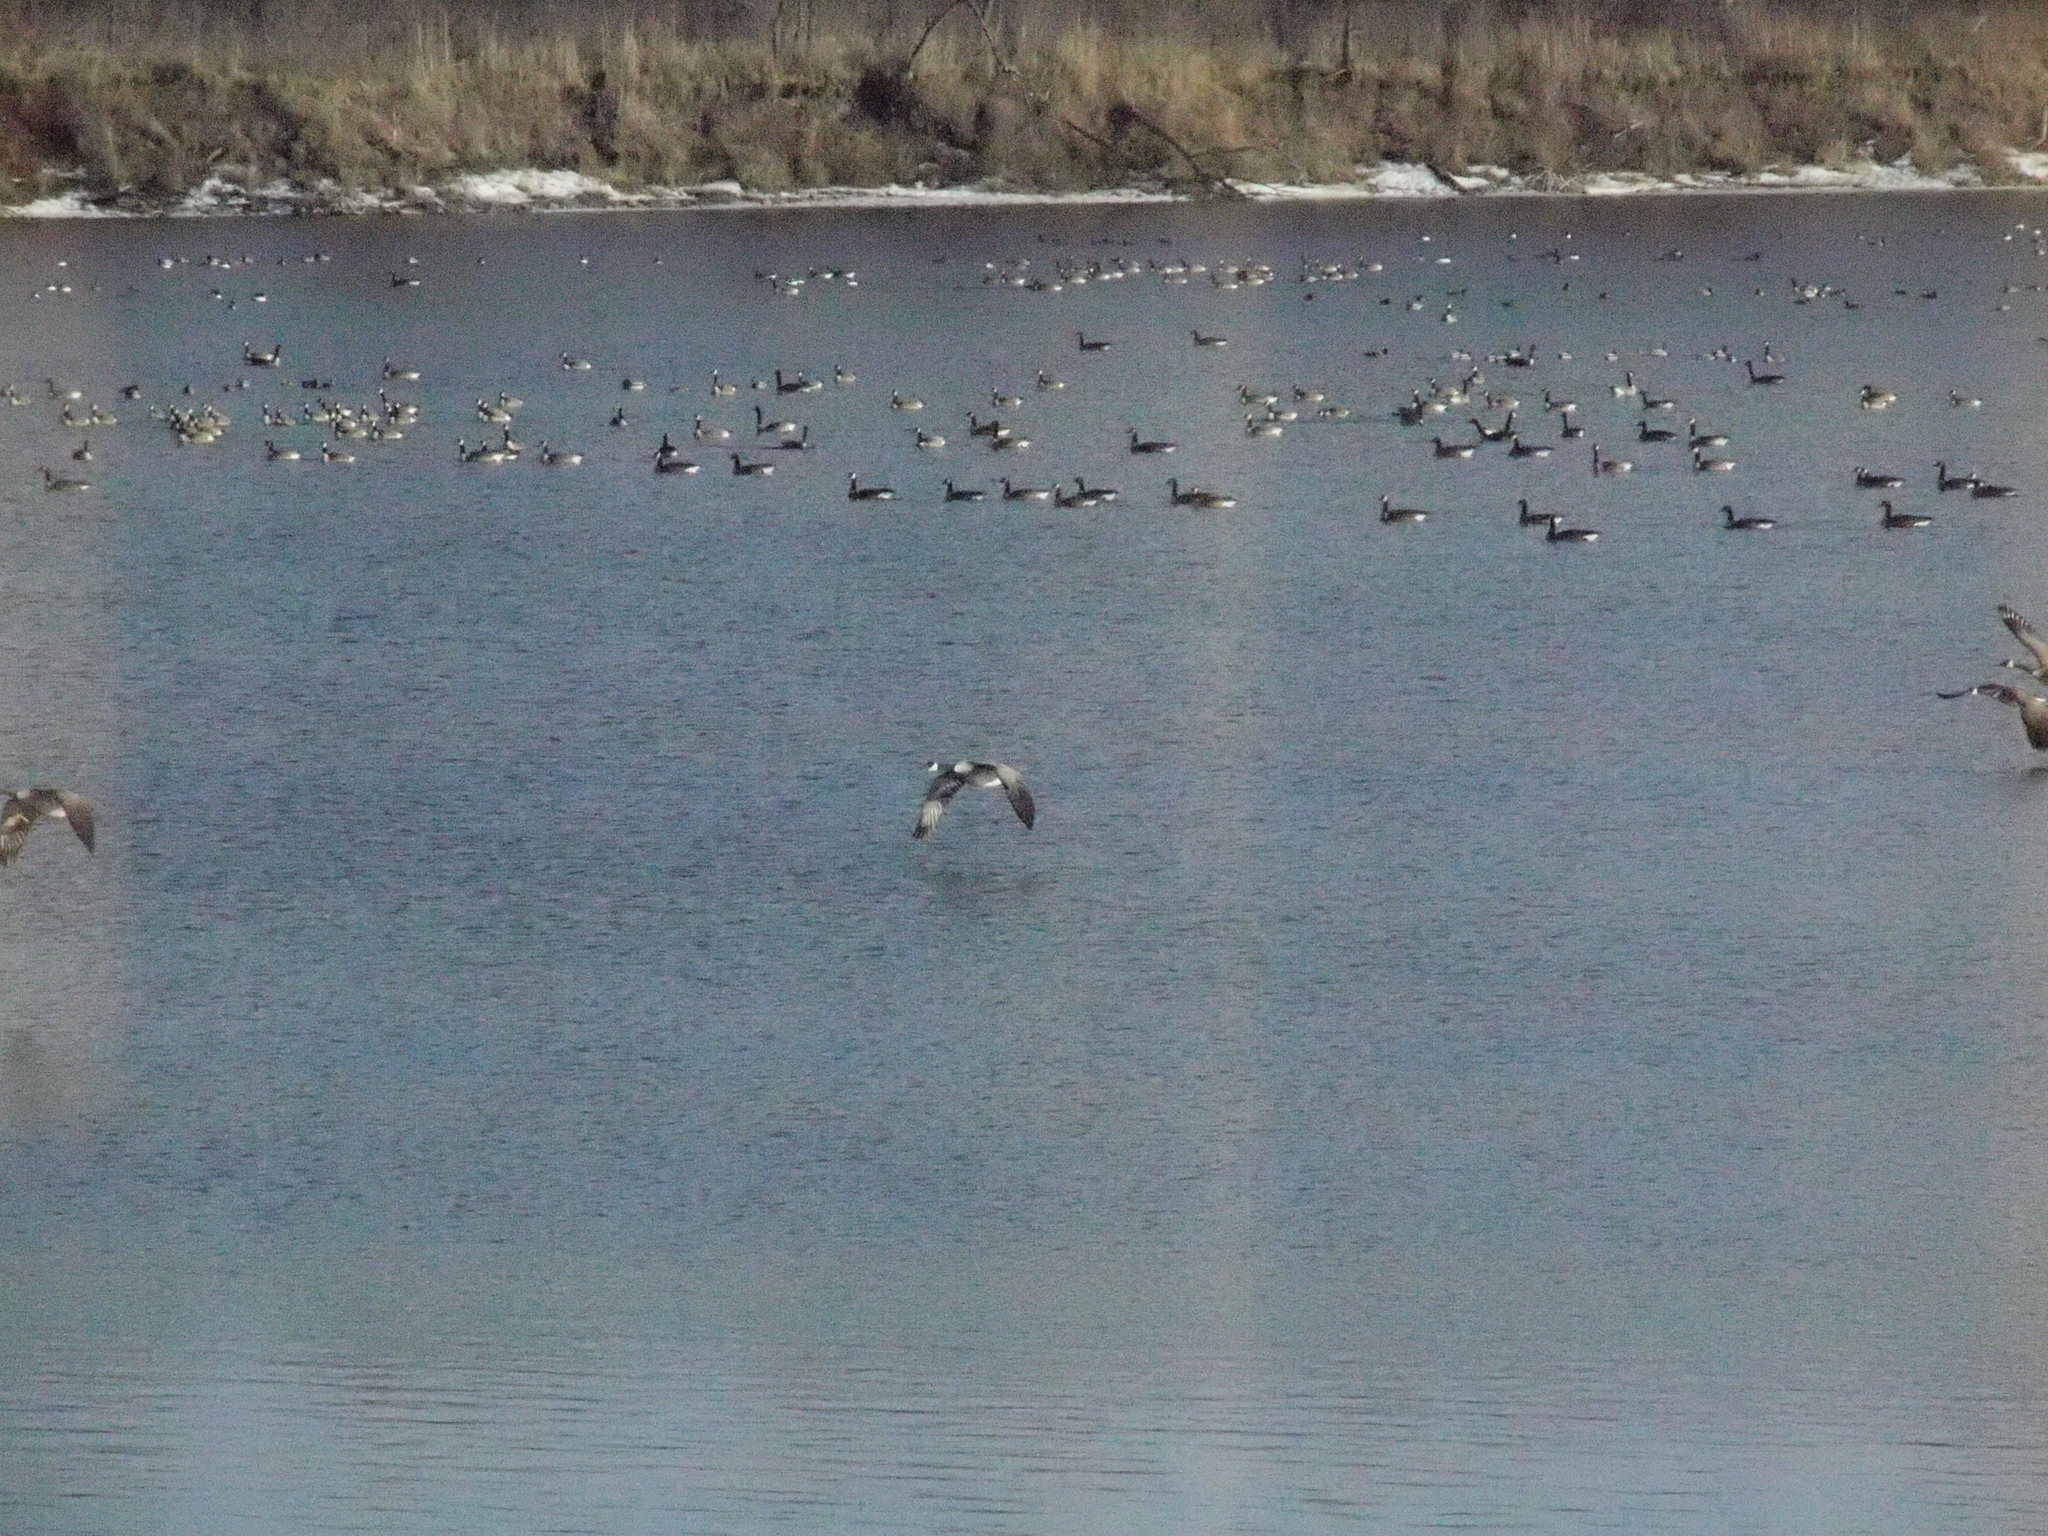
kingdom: Animalia
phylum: Chordata
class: Aves
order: Anseriformes
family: Anatidae
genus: Branta
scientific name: Branta canadensis
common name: Canada goose
